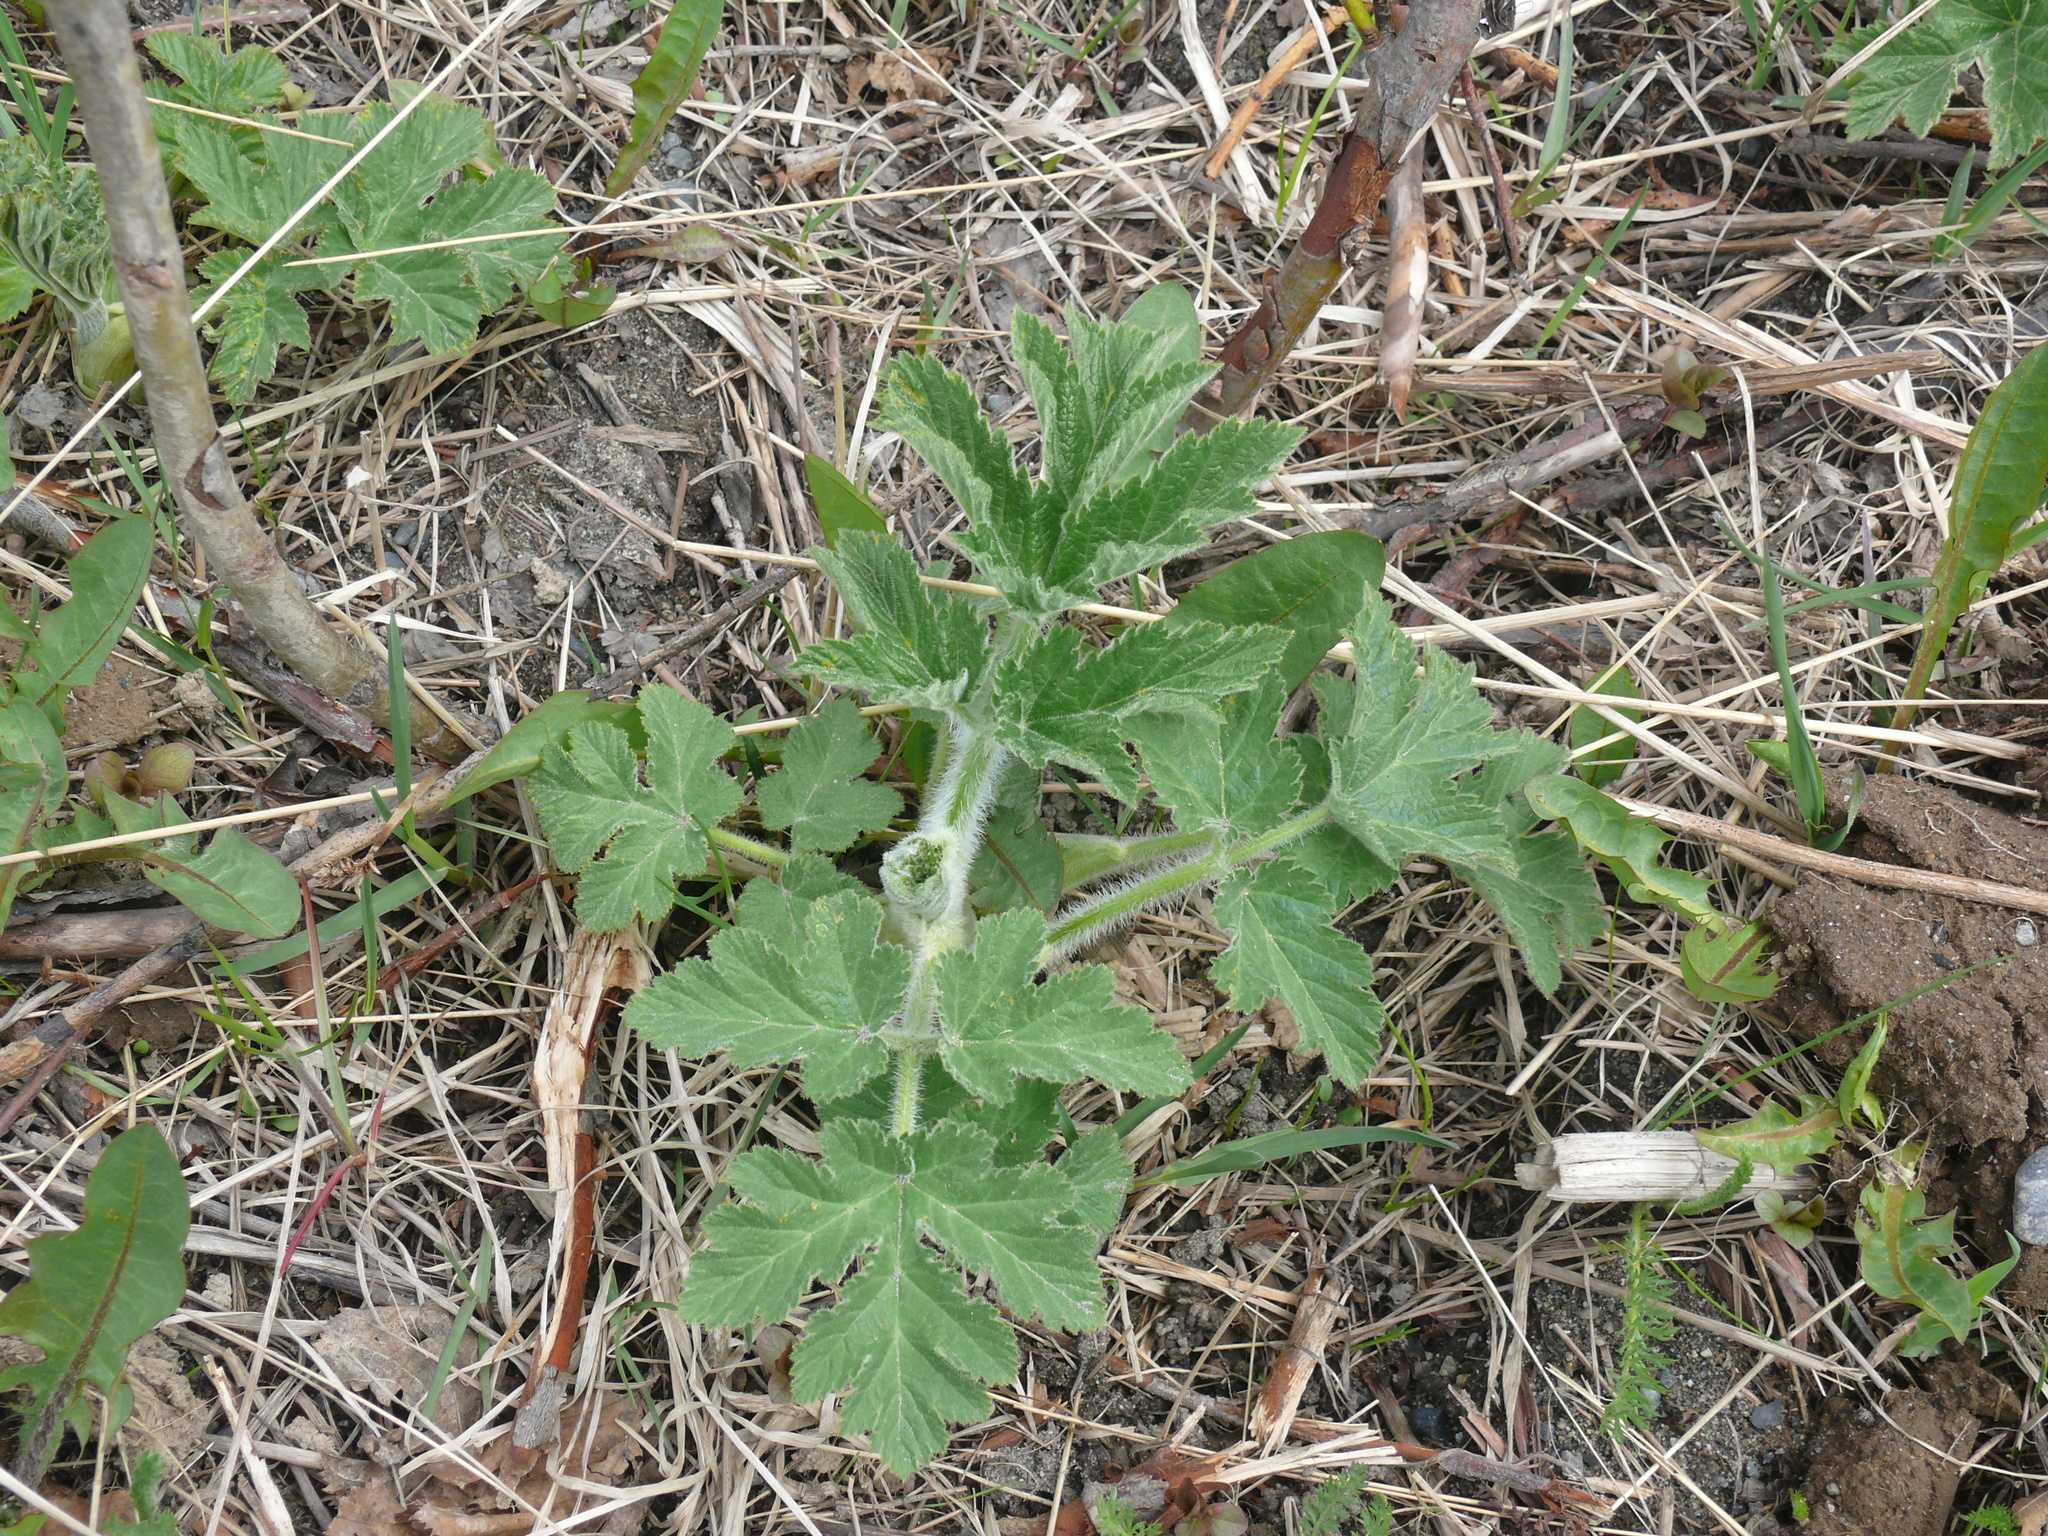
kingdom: Plantae
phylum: Tracheophyta
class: Magnoliopsida
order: Apiales
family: Apiaceae
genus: Heracleum
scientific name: Heracleum maximum
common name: American cow parsnip
